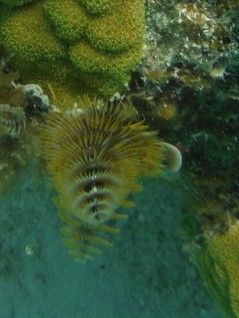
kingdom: Animalia
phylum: Annelida
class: Polychaeta
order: Sabellida
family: Serpulidae
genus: Spirobranchus
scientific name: Spirobranchus giganteus
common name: Christmas tree worm
